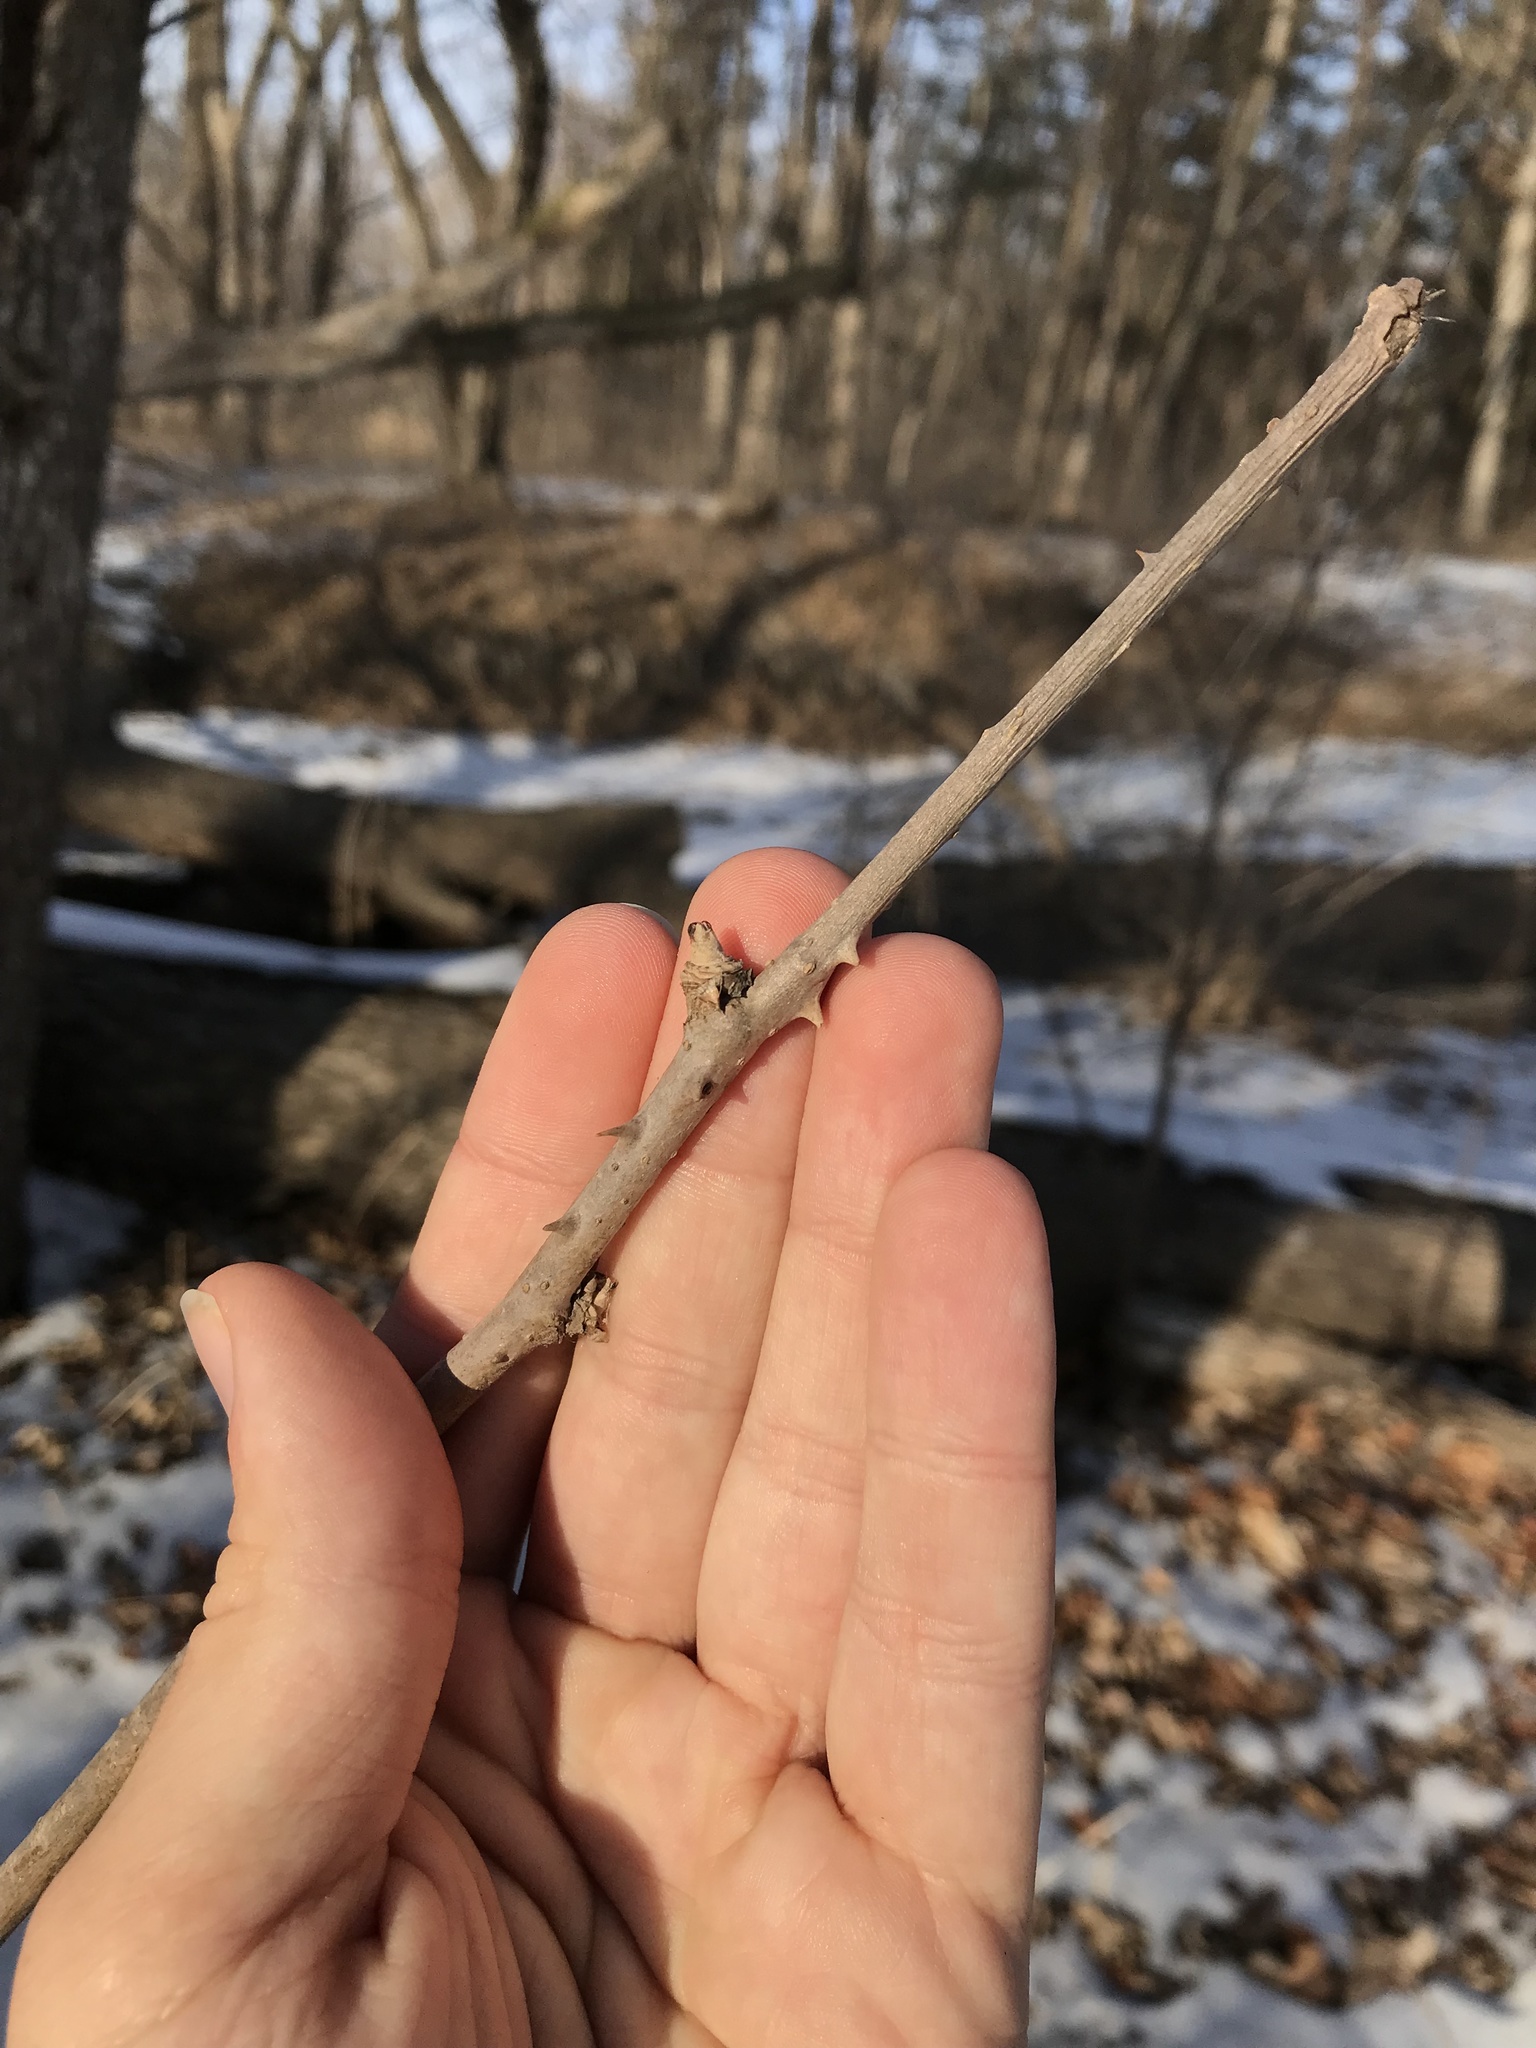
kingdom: Plantae
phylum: Tracheophyta
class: Magnoliopsida
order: Apiales
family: Araliaceae
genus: Eleutherococcus
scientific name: Eleutherococcus sessiliflorus
